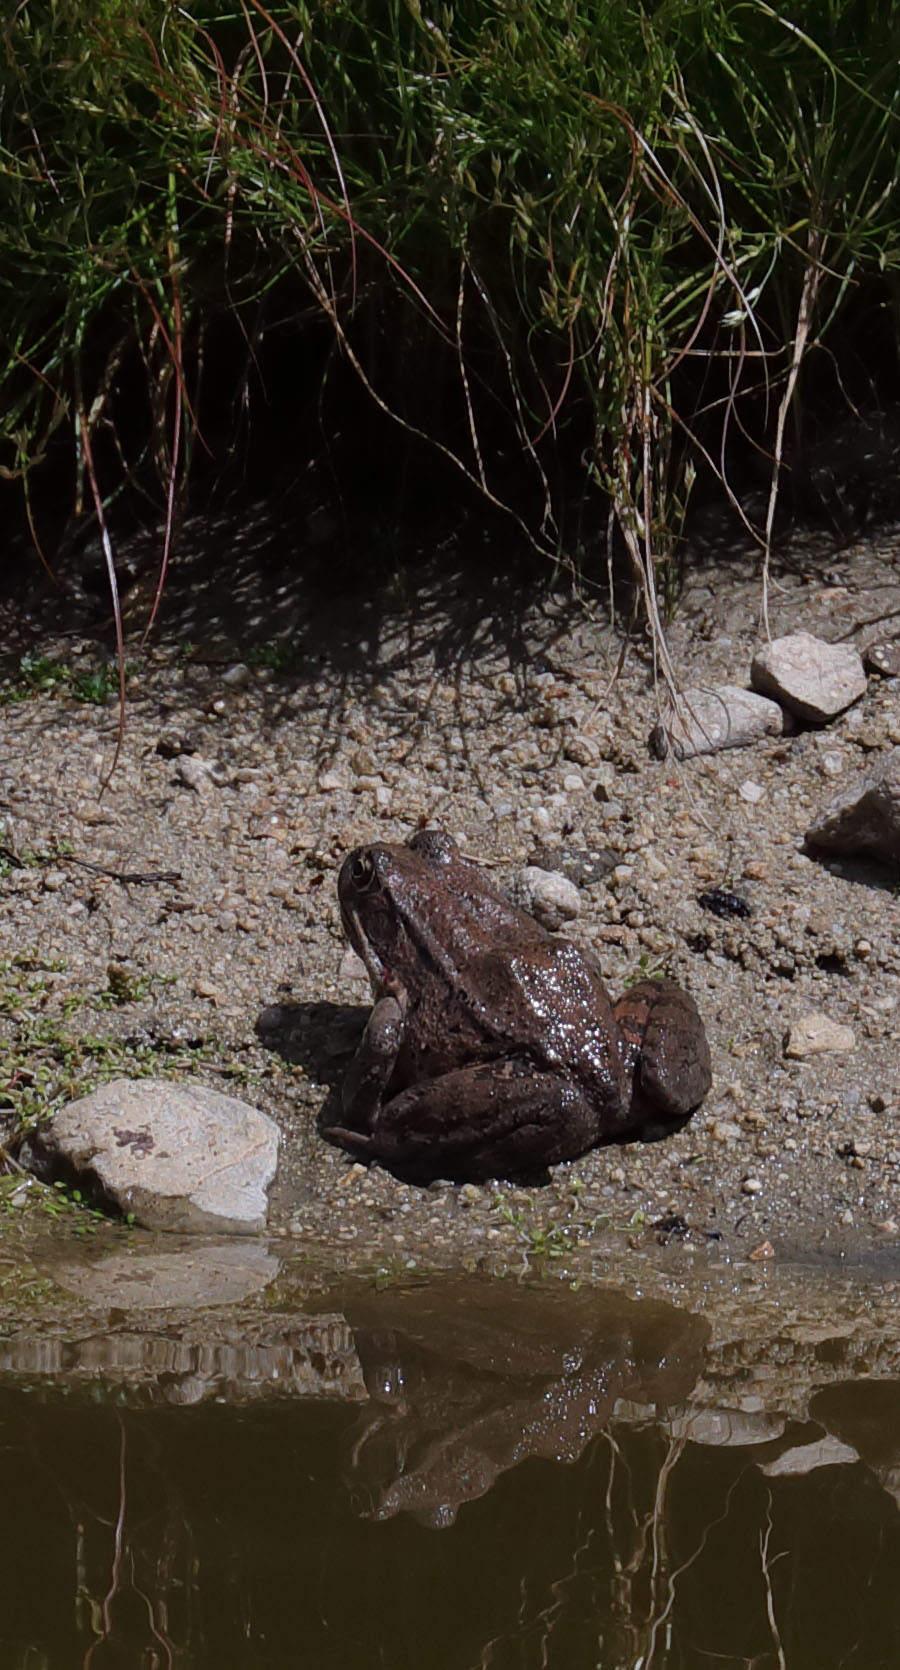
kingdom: Animalia
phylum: Chordata
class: Amphibia
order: Anura
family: Ranidae
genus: Rana
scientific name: Rana draytonii
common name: California red-legged frog
